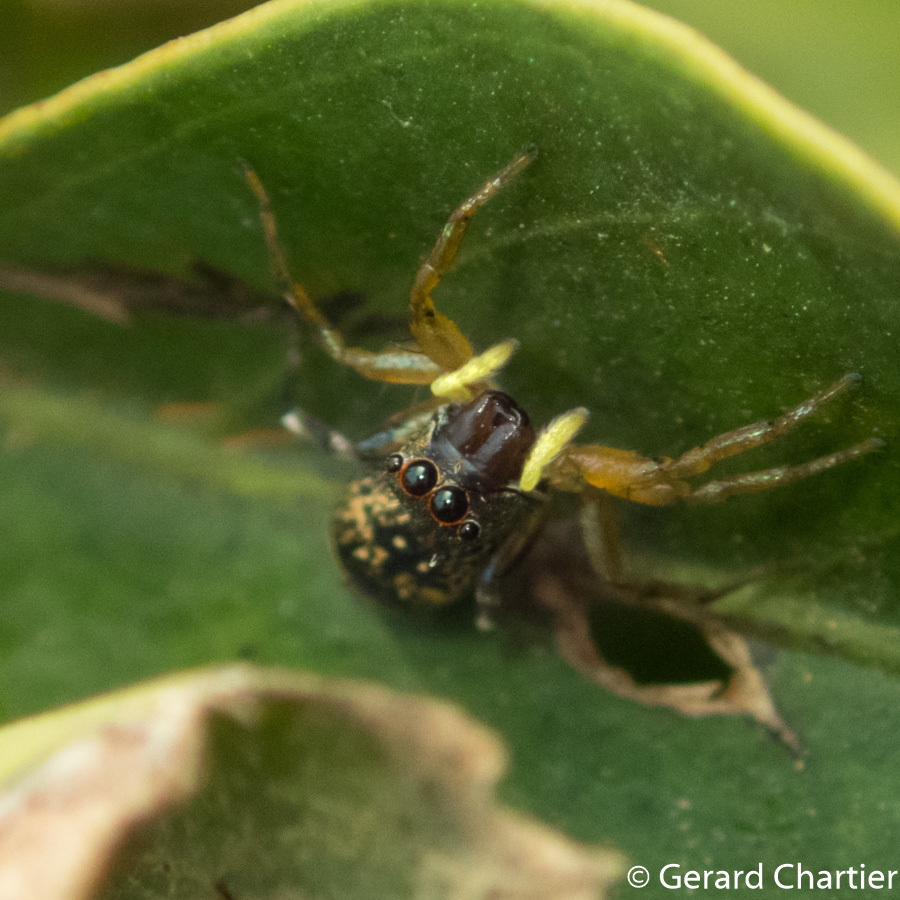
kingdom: Animalia
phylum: Arthropoda
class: Arachnida
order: Araneae
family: Salticidae
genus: Cosmophasis
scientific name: Cosmophasis thalassina
